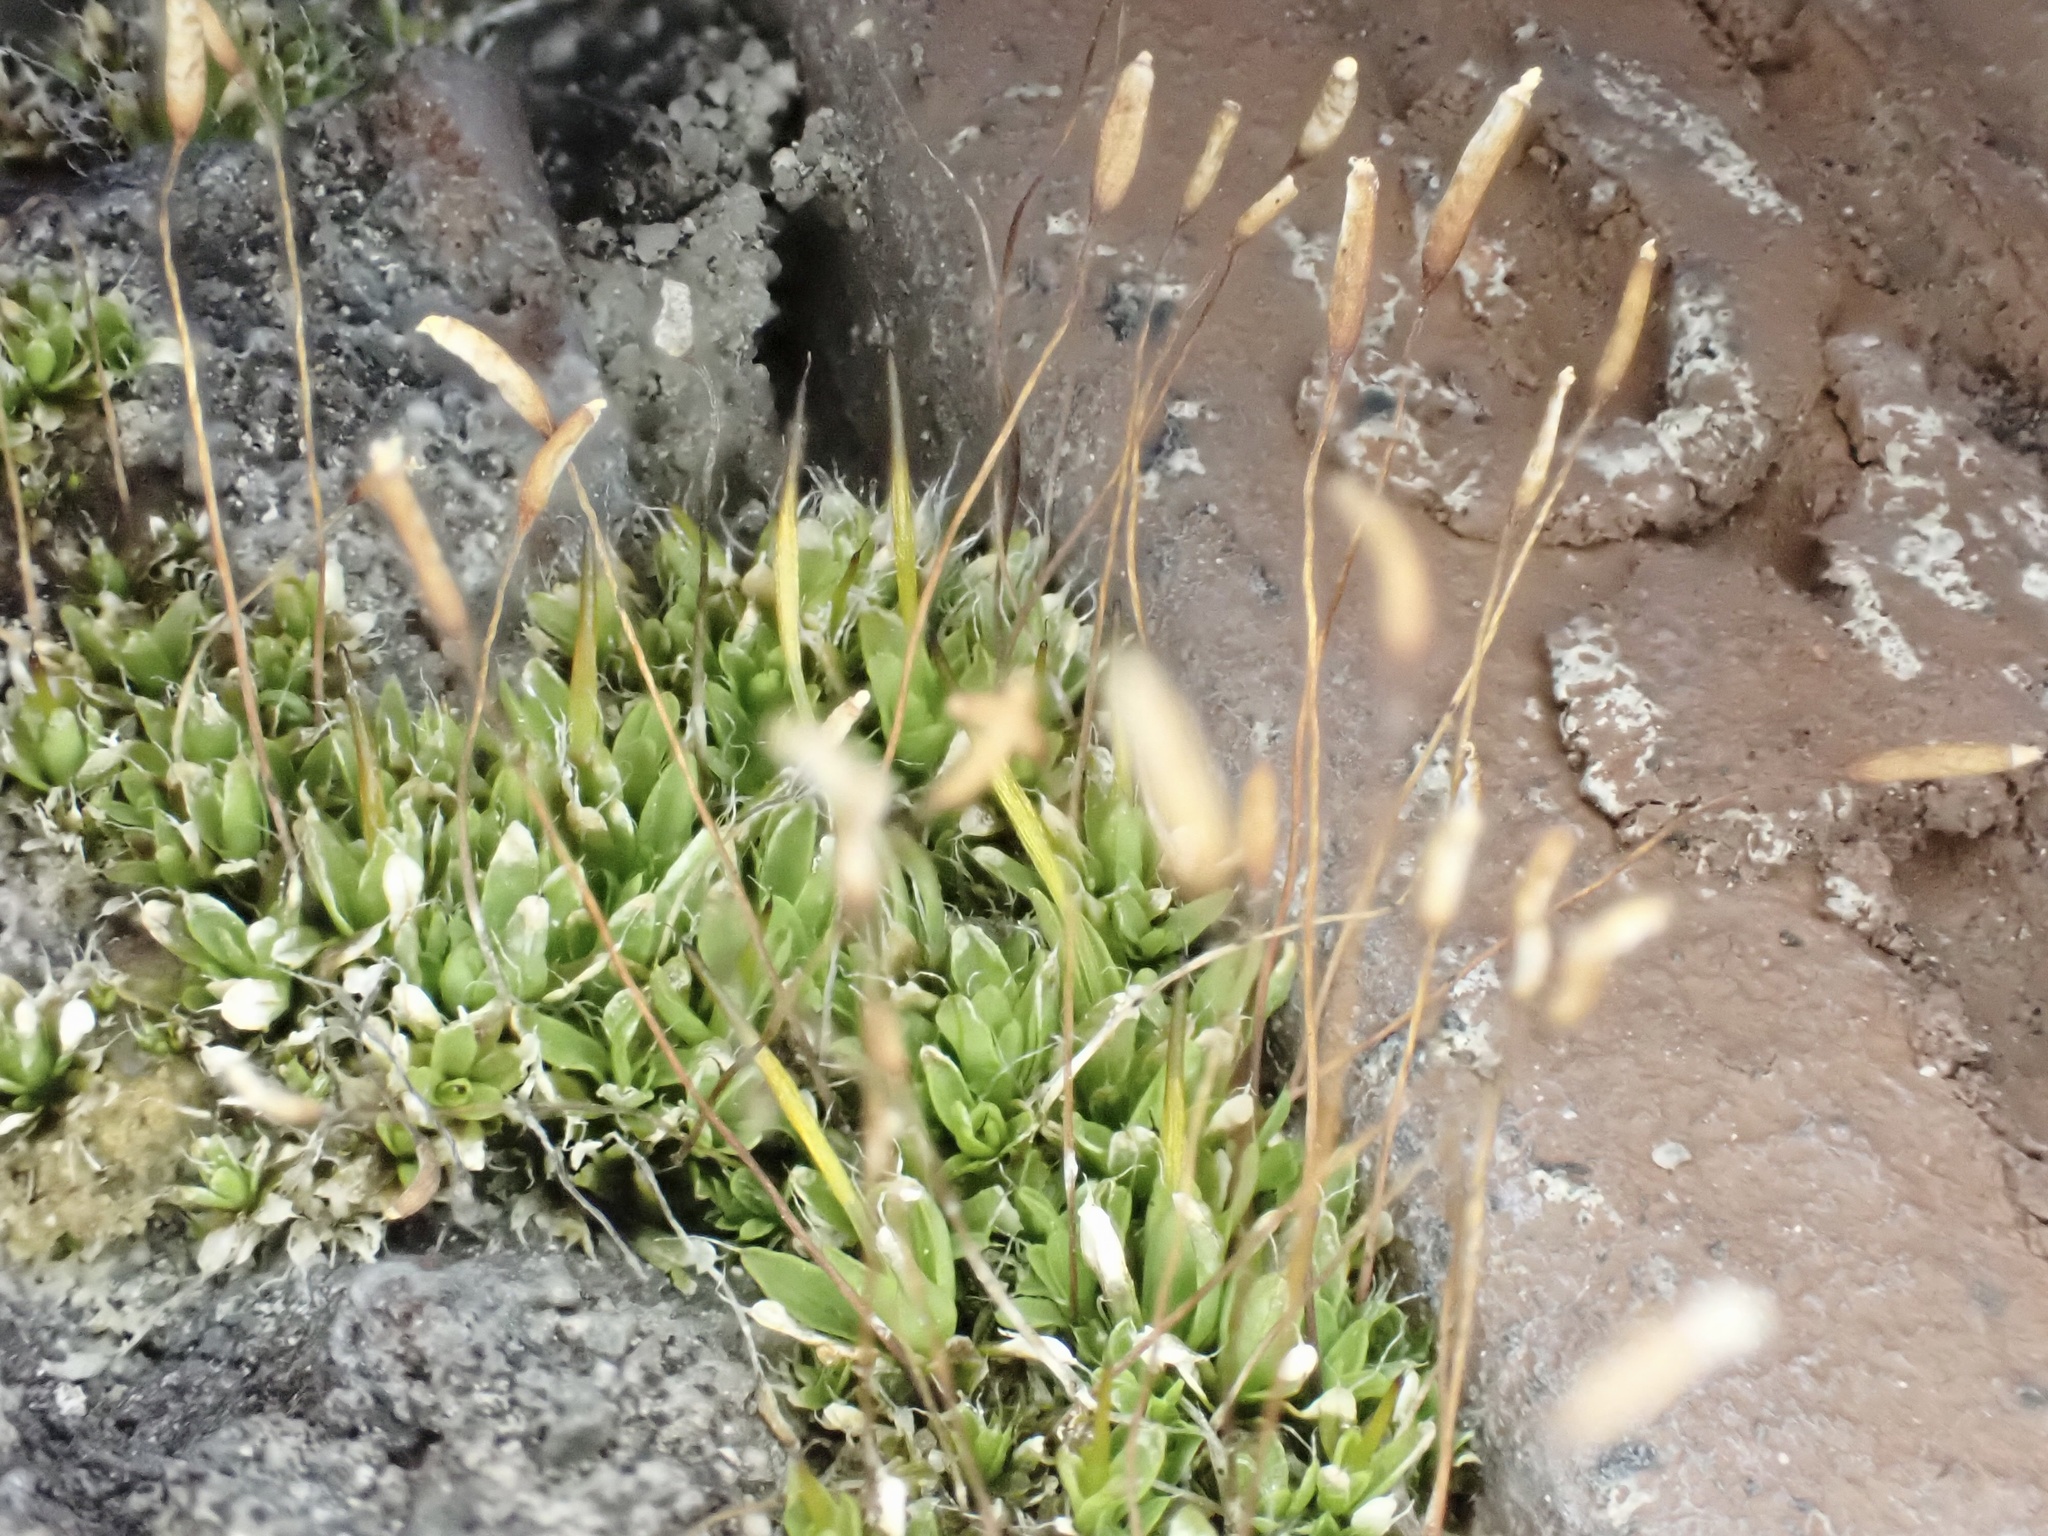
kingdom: Plantae
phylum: Bryophyta
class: Bryopsida
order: Pottiales
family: Pottiaceae
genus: Tortula
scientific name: Tortula muralis
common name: Wall screw-moss
